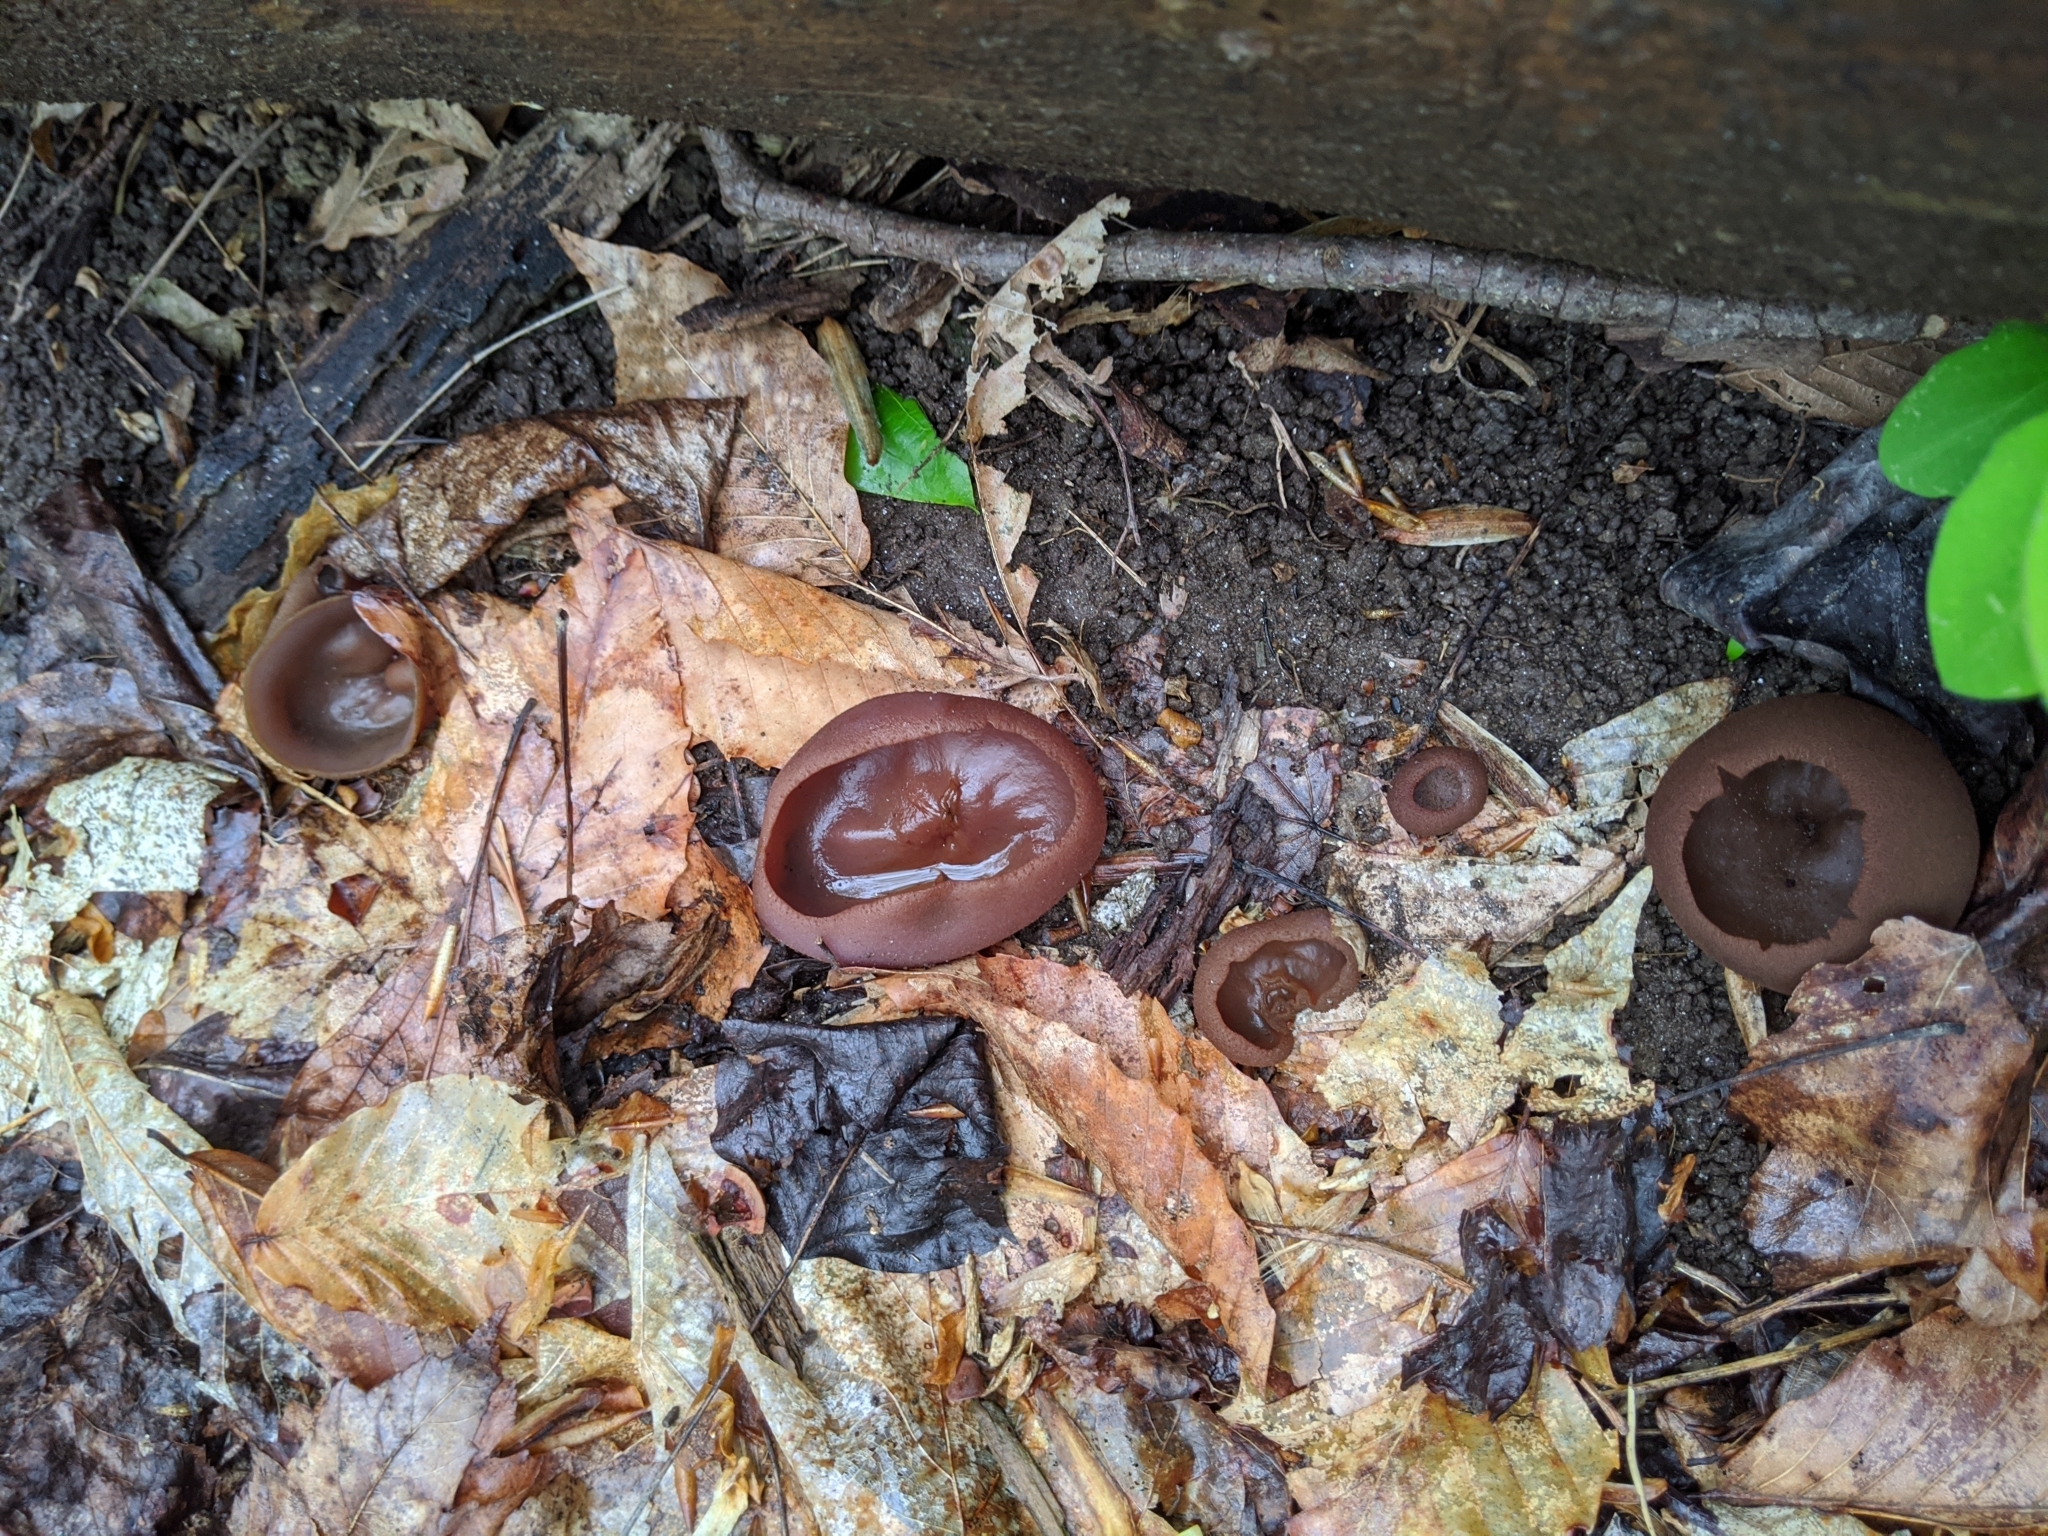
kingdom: Fungi
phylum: Ascomycota
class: Pezizomycetes
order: Pezizales
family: Pezizaceae
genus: Phylloscypha
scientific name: Phylloscypha phyllogena
